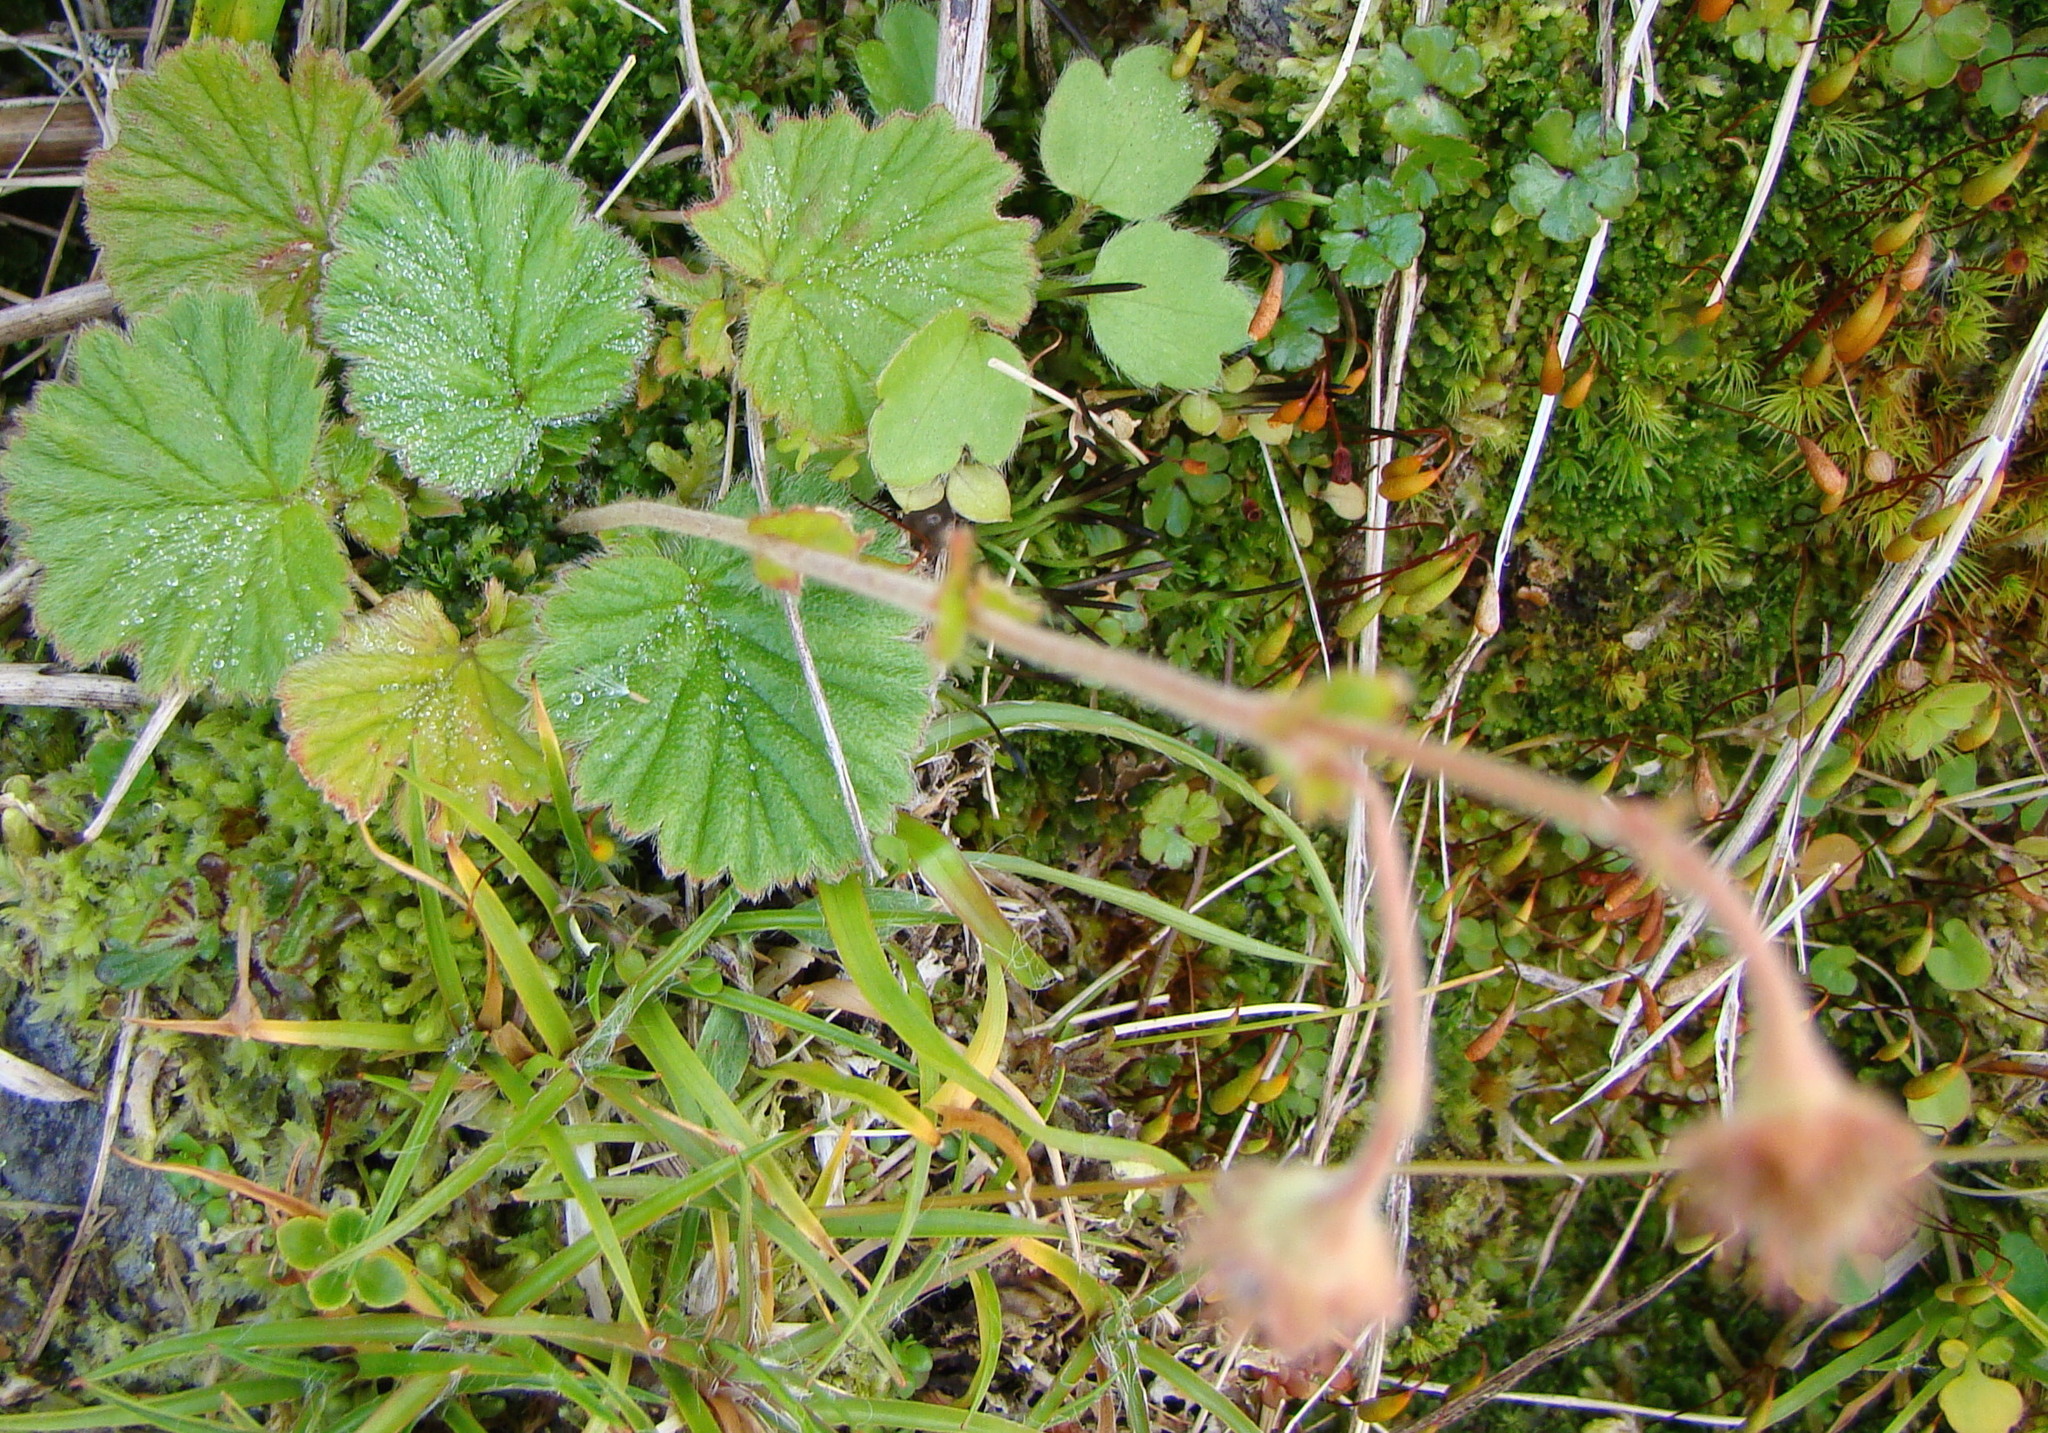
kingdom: Plantae
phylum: Tracheophyta
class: Magnoliopsida
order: Rosales
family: Rosaceae
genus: Geum
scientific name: Geum cockaynei
